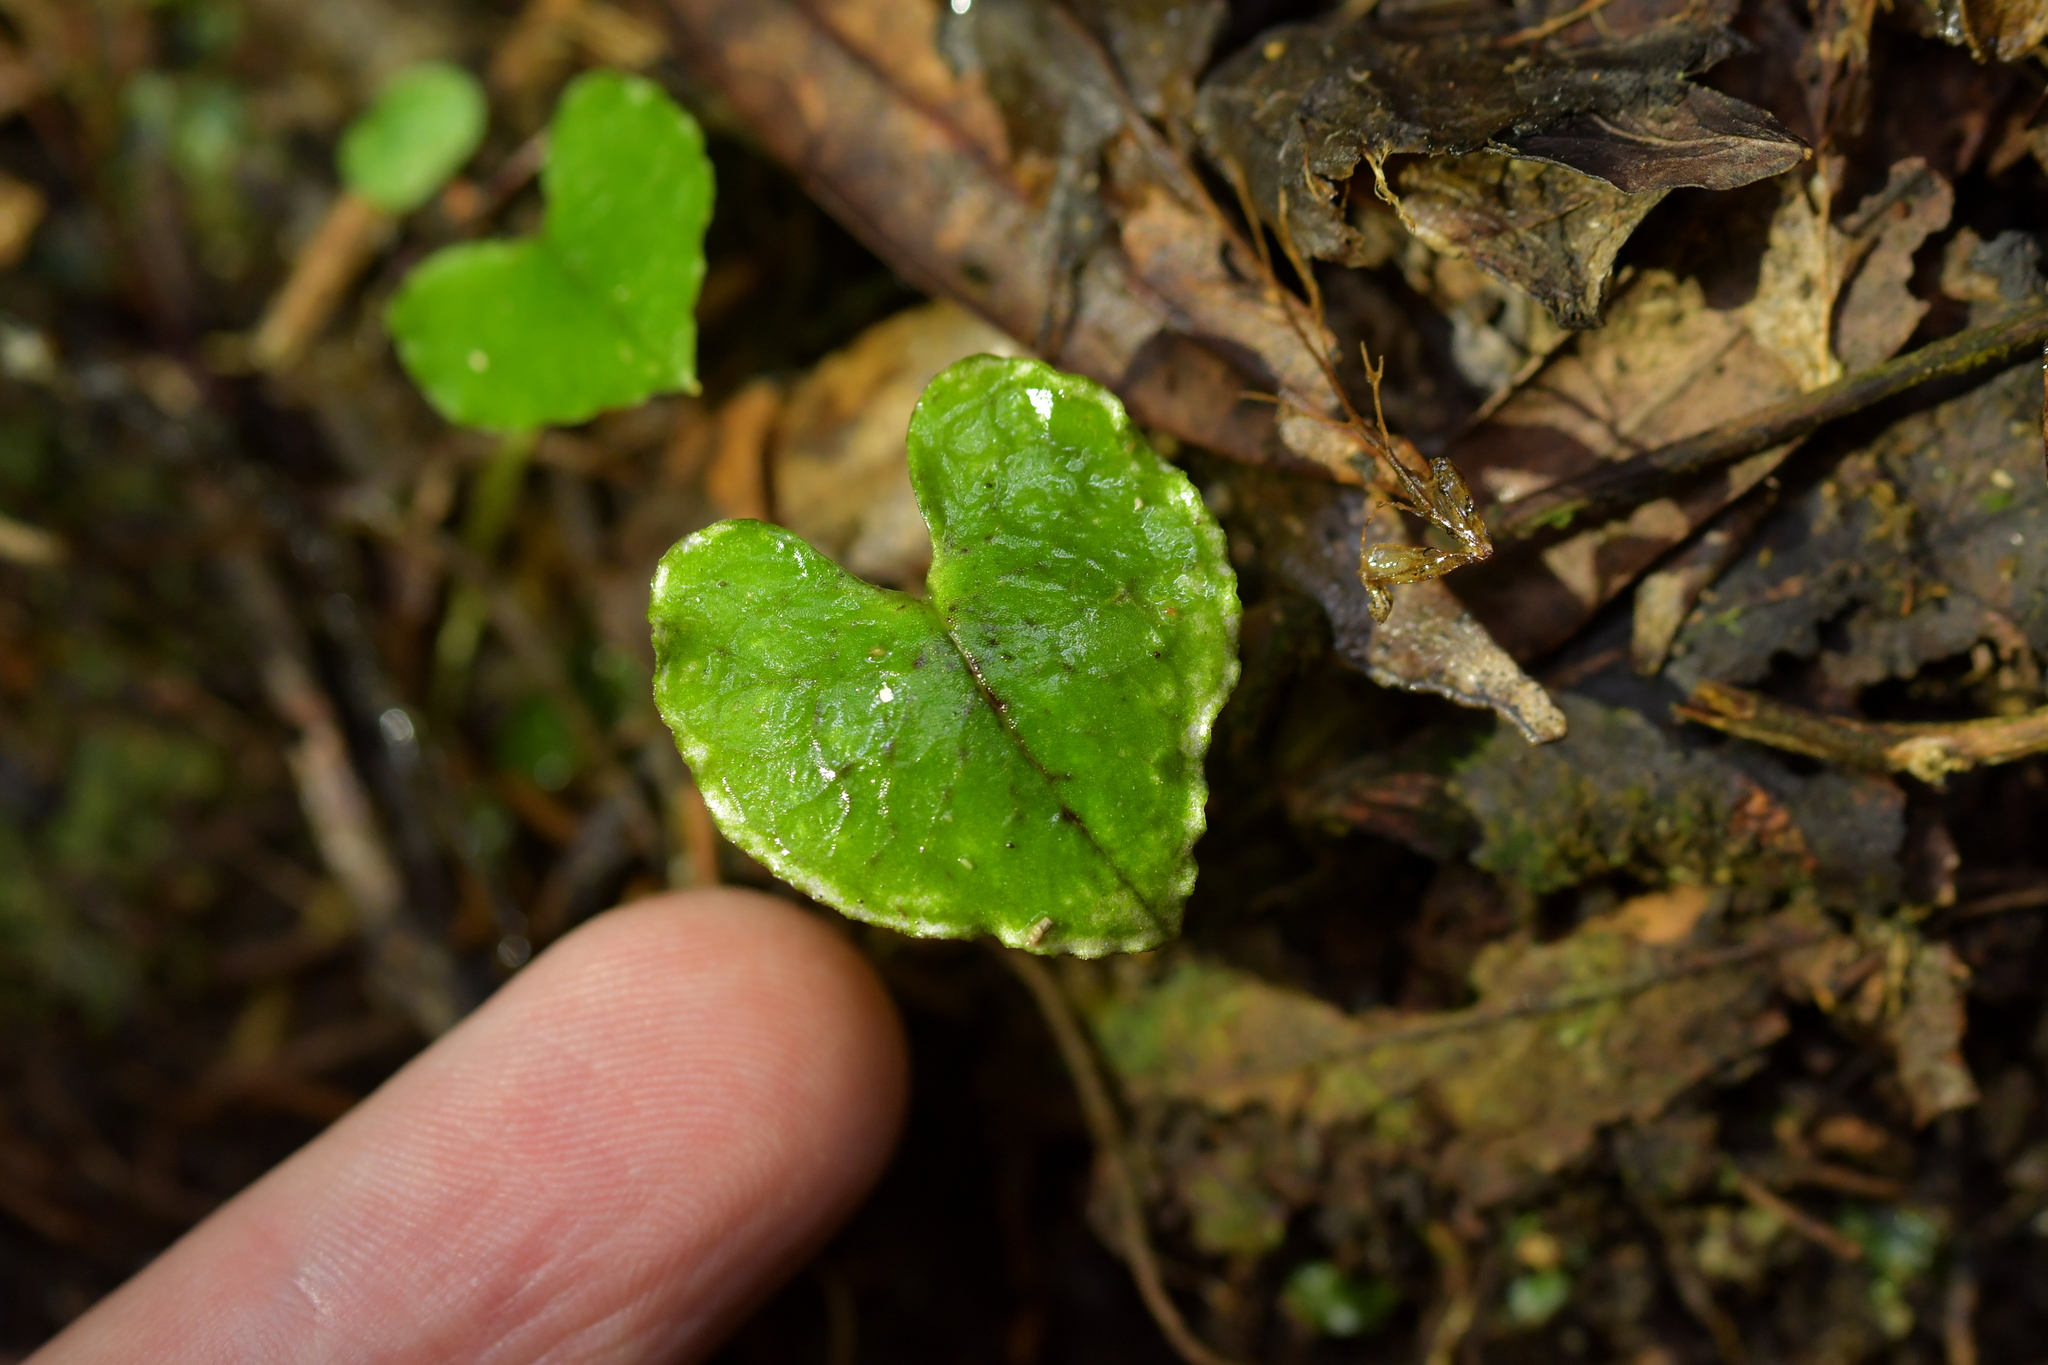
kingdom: Plantae
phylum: Tracheophyta
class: Liliopsida
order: Asparagales
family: Orchidaceae
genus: Corybas
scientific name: Corybas acuminatus
